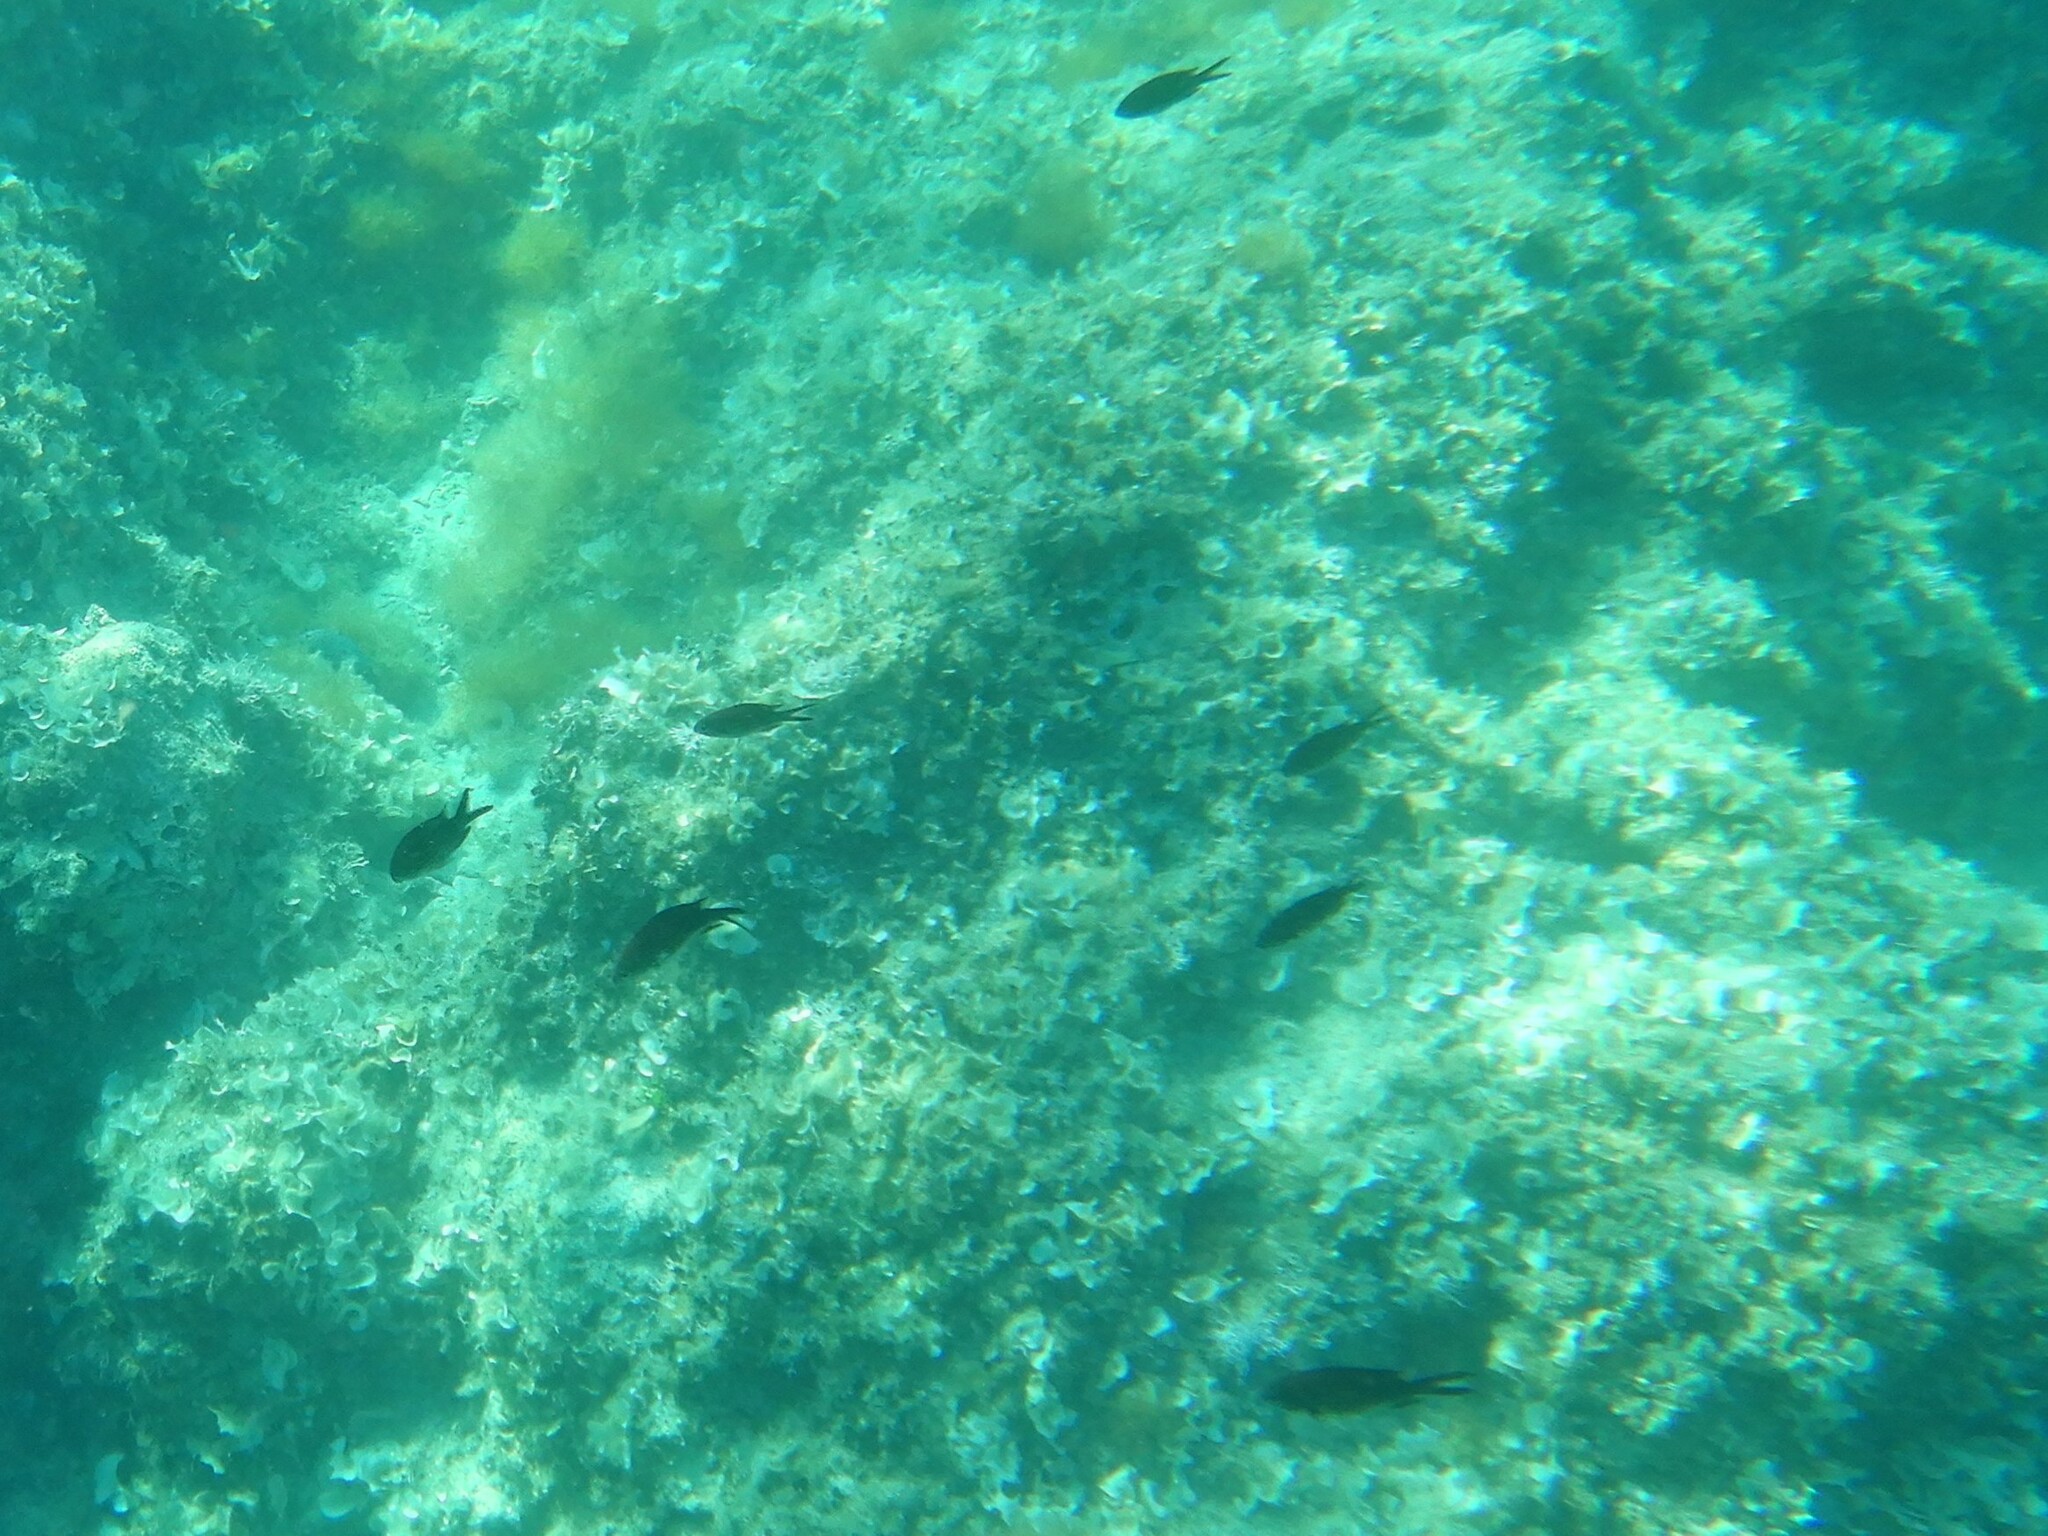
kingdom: Animalia
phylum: Chordata
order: Perciformes
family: Pomacentridae
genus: Chromis
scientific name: Chromis chromis
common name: Damselfish
